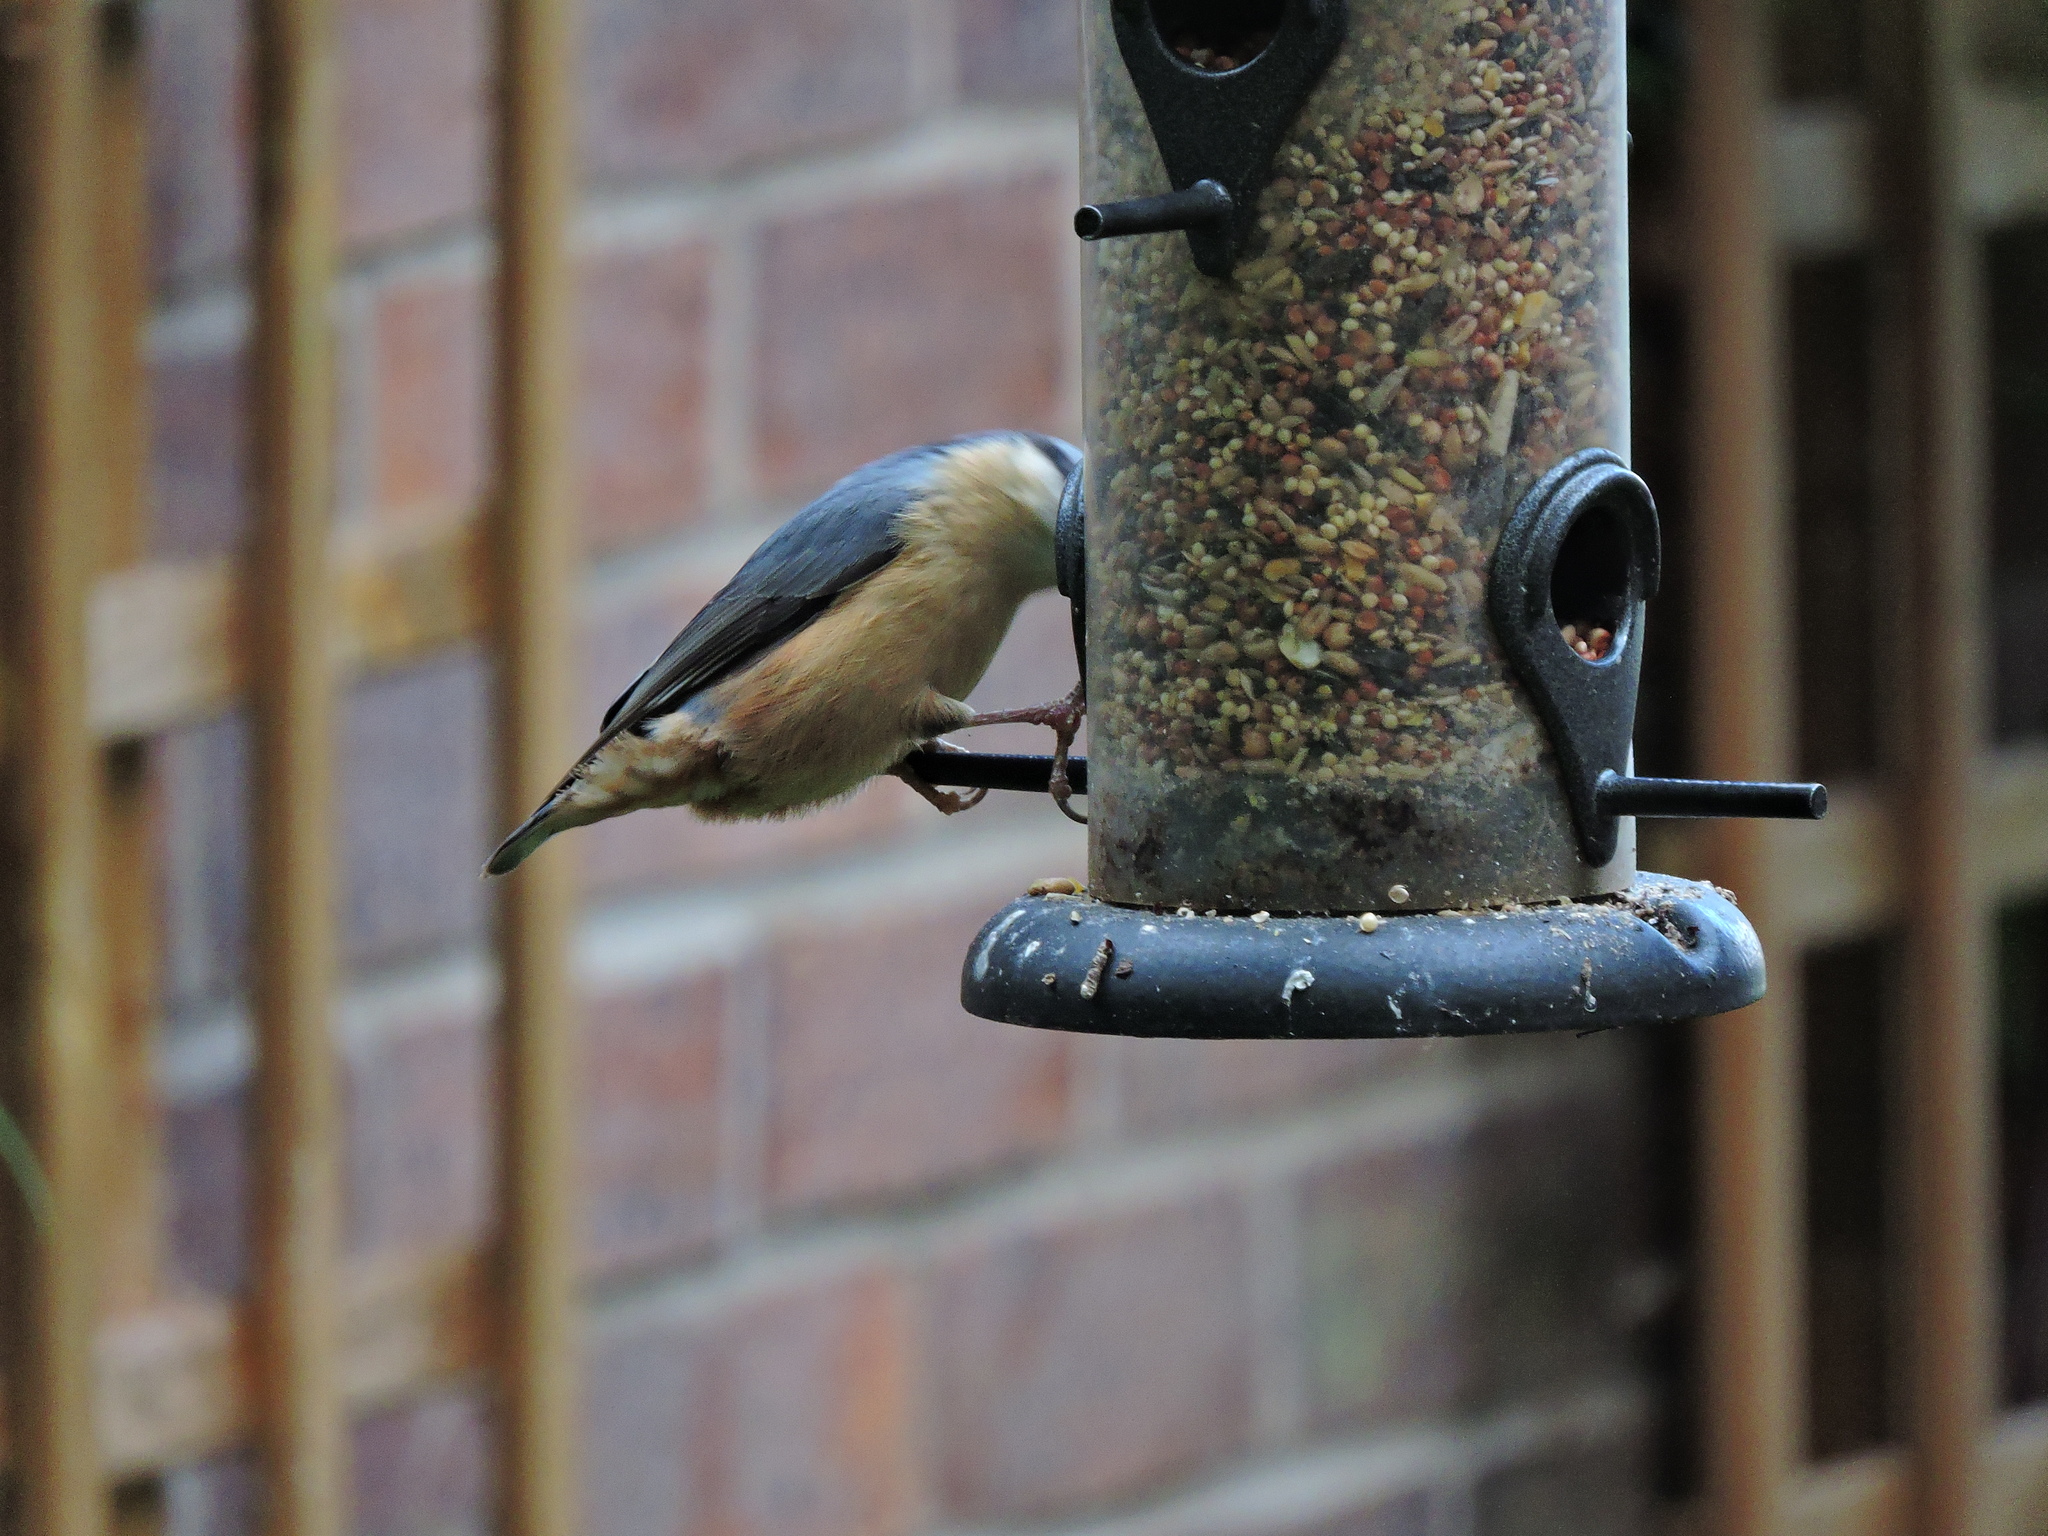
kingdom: Animalia
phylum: Chordata
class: Aves
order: Passeriformes
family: Sittidae
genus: Sitta
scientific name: Sitta europaea
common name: Eurasian nuthatch
